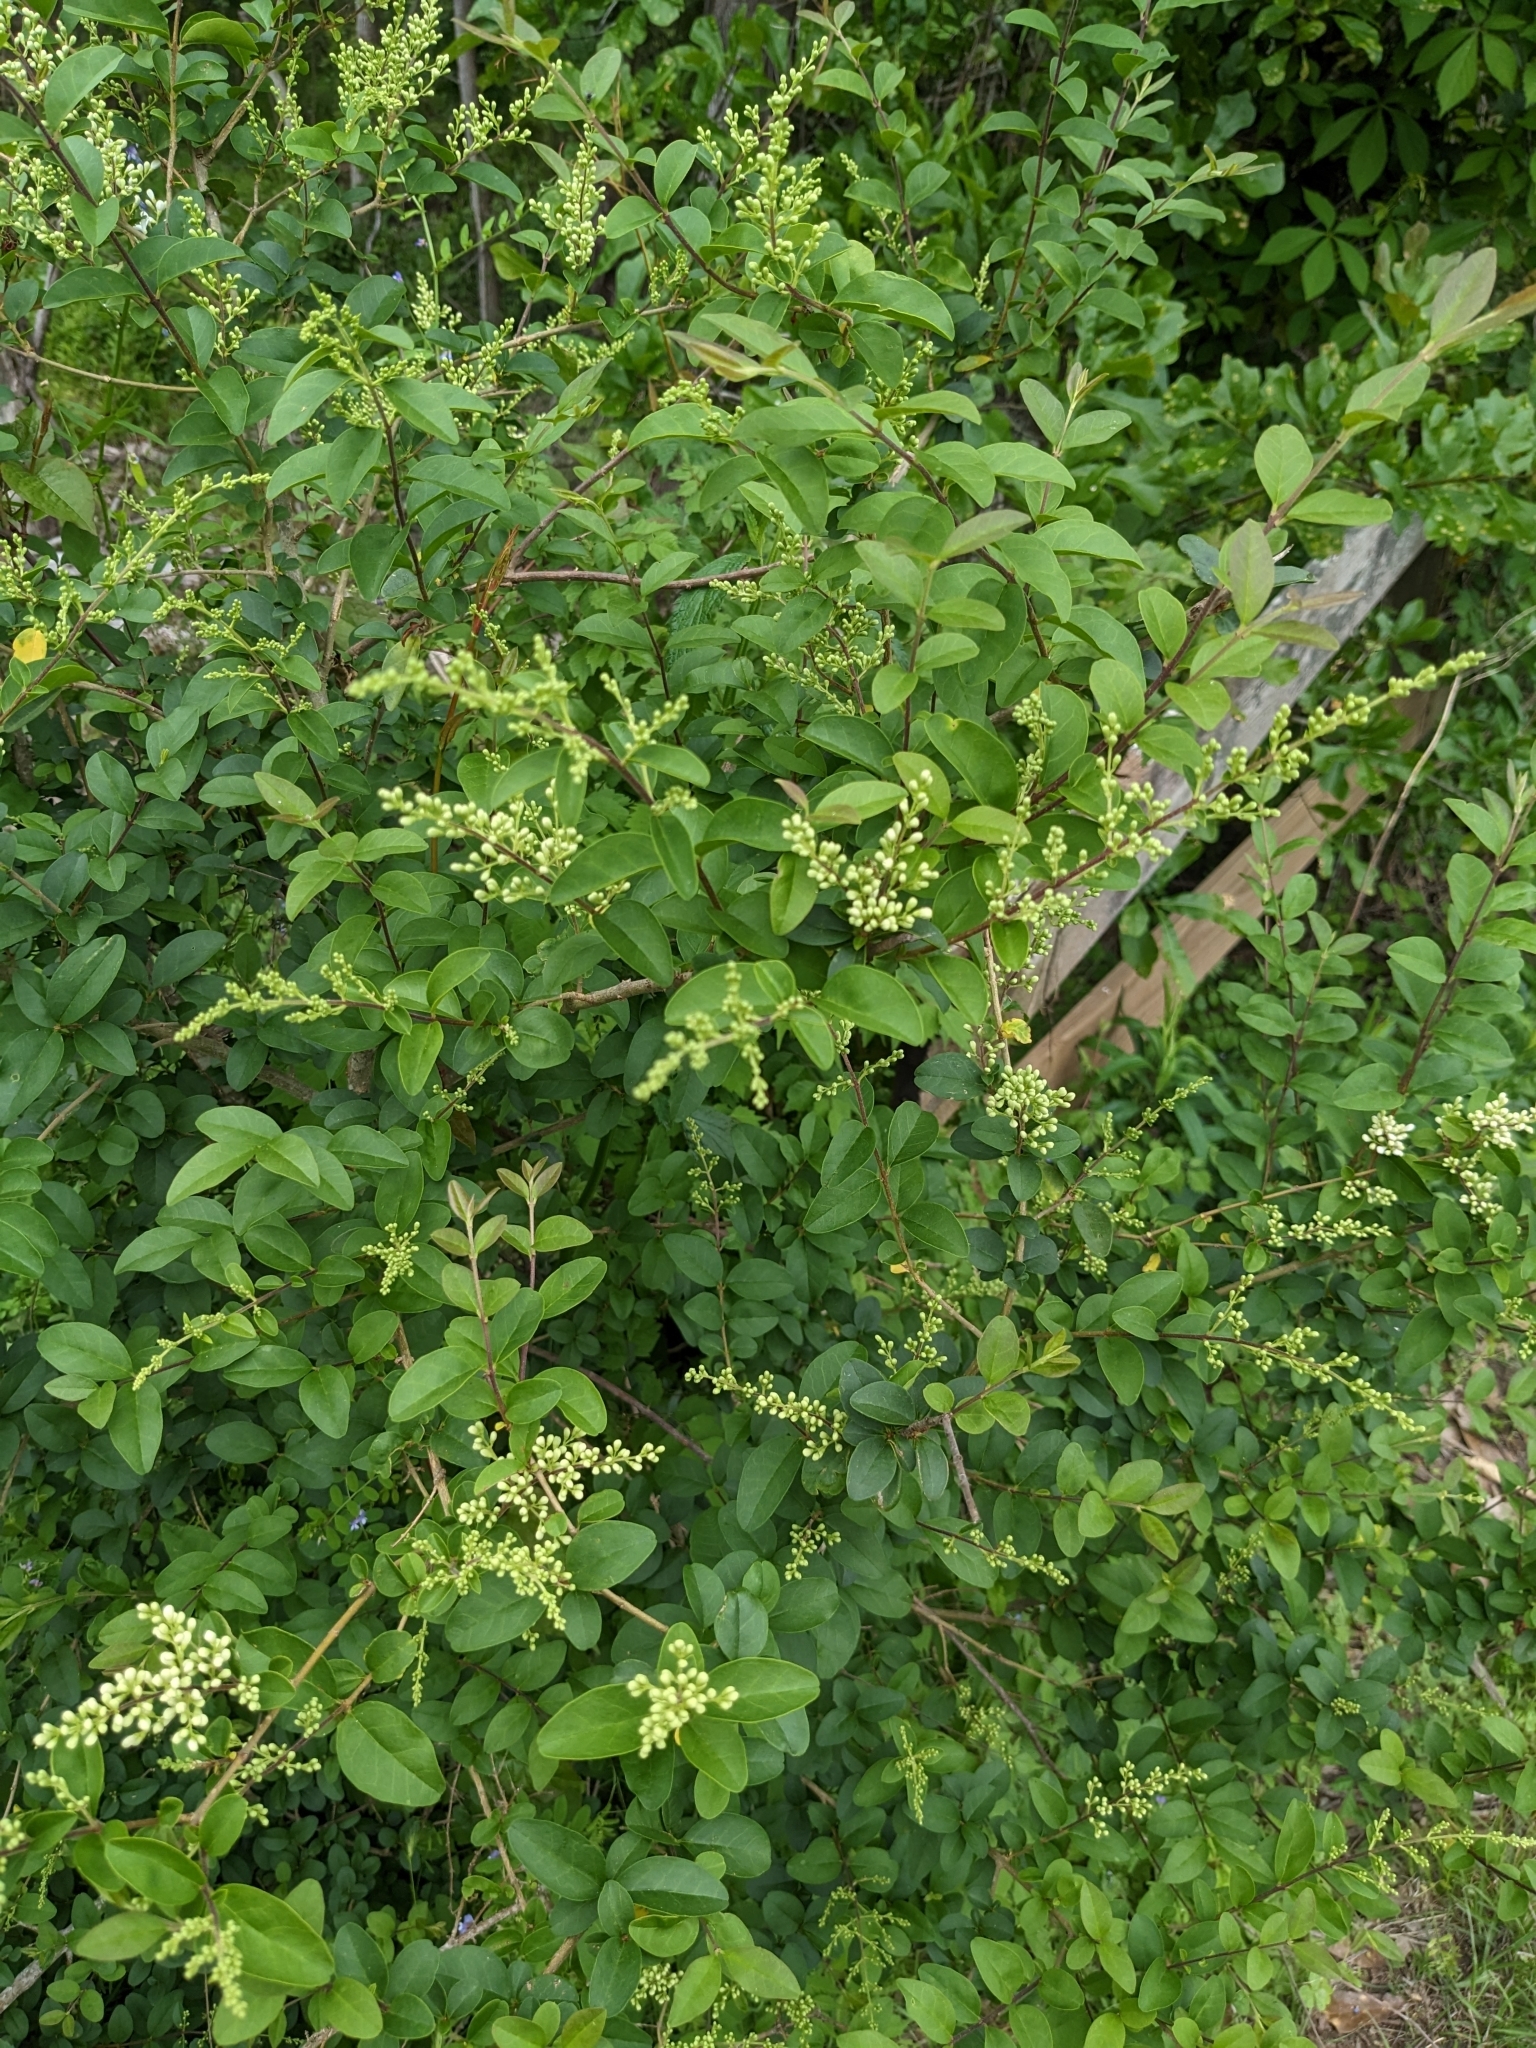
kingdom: Plantae
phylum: Tracheophyta
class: Magnoliopsida
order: Lamiales
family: Oleaceae
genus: Ligustrum
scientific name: Ligustrum sinense
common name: Chinese privet
